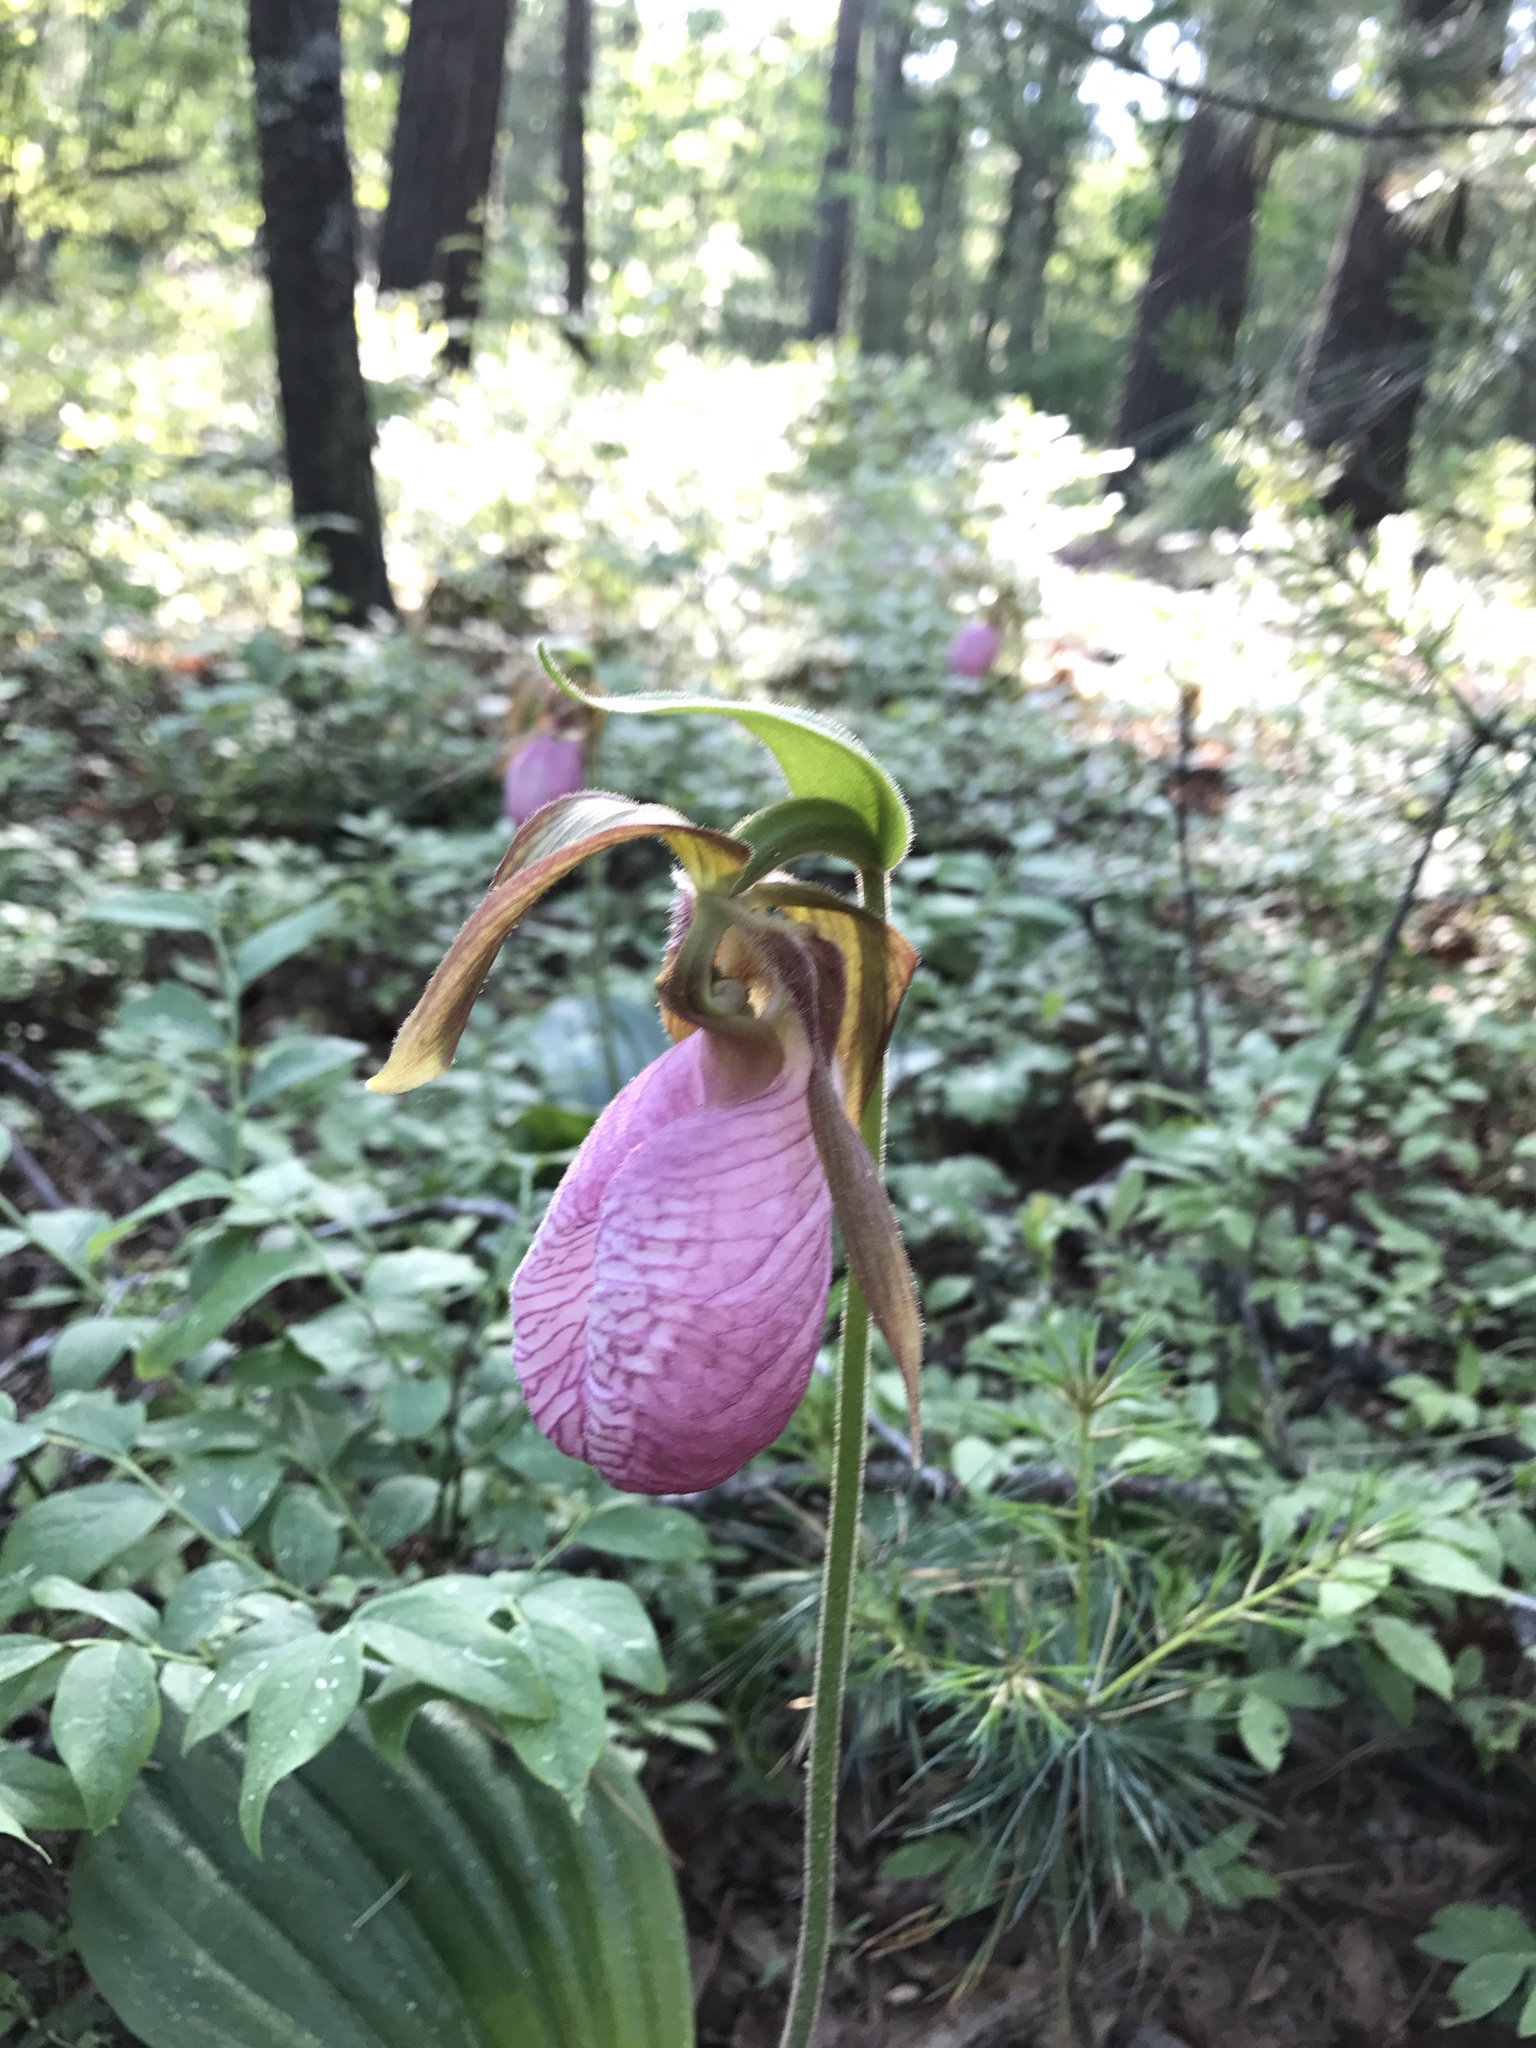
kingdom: Plantae
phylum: Tracheophyta
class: Liliopsida
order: Asparagales
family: Orchidaceae
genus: Cypripedium
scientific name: Cypripedium acaule
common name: Pink lady's-slipper
